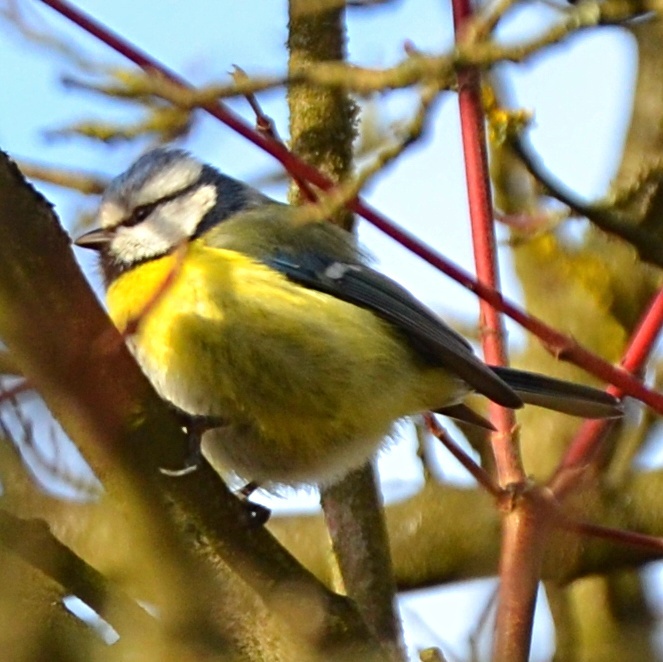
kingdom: Animalia
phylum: Chordata
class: Aves
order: Passeriformes
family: Paridae
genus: Cyanistes
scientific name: Cyanistes caeruleus
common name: Eurasian blue tit
